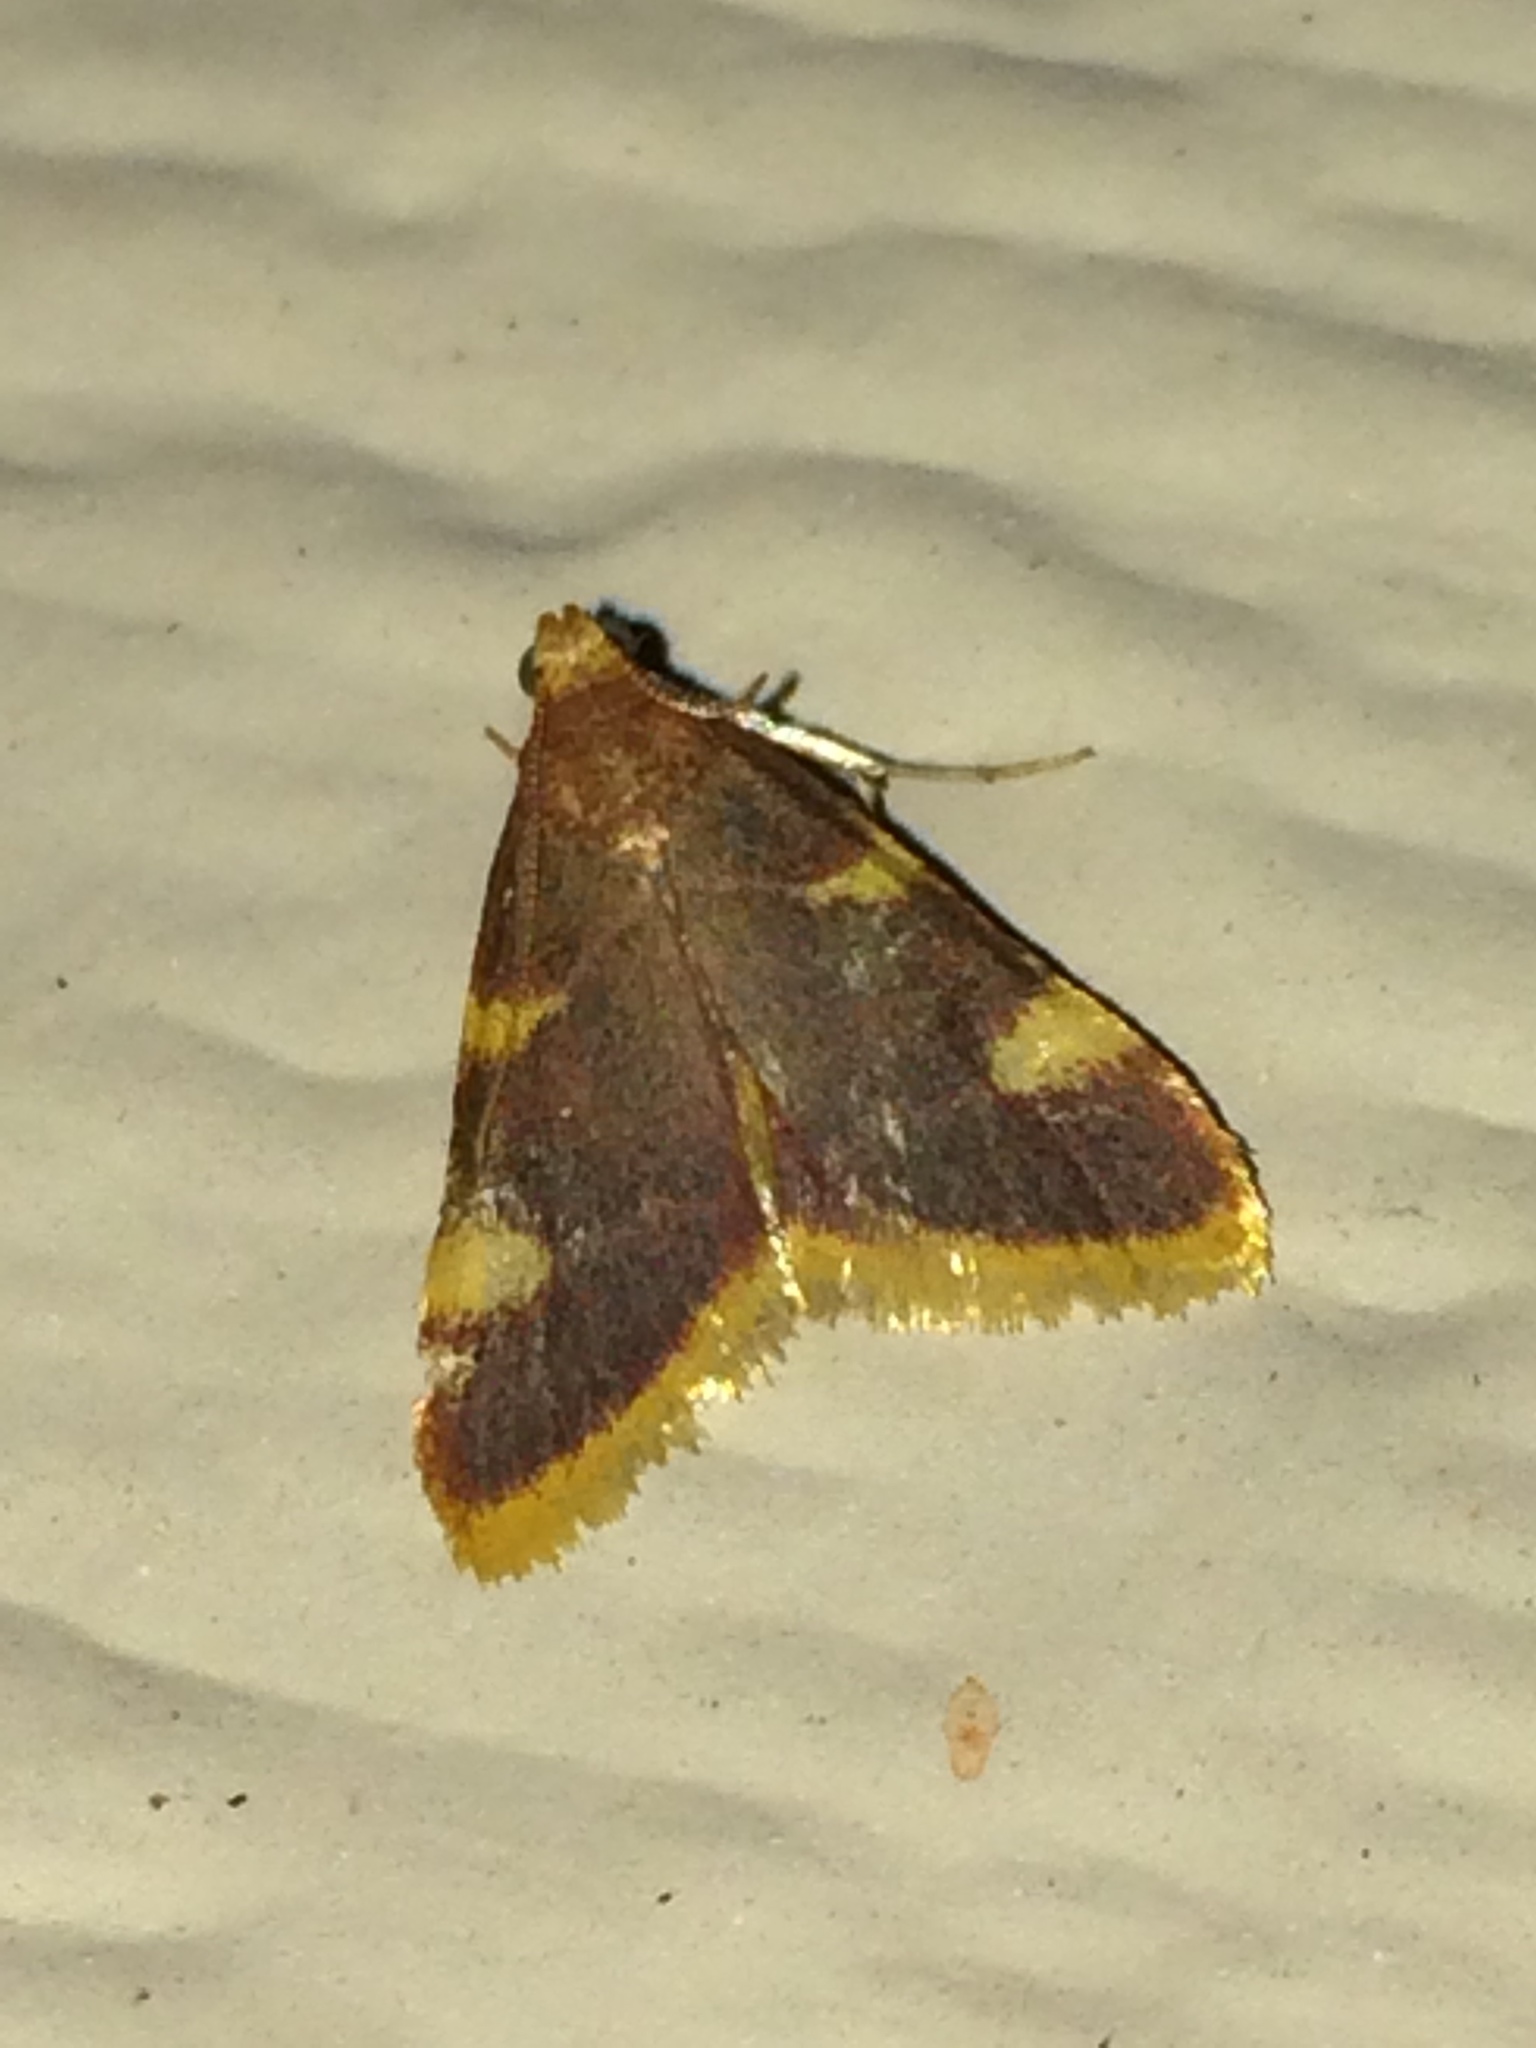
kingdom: Animalia
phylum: Arthropoda
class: Insecta
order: Lepidoptera
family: Pyralidae
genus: Hypsopygia
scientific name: Hypsopygia costalis
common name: Gold triangle
